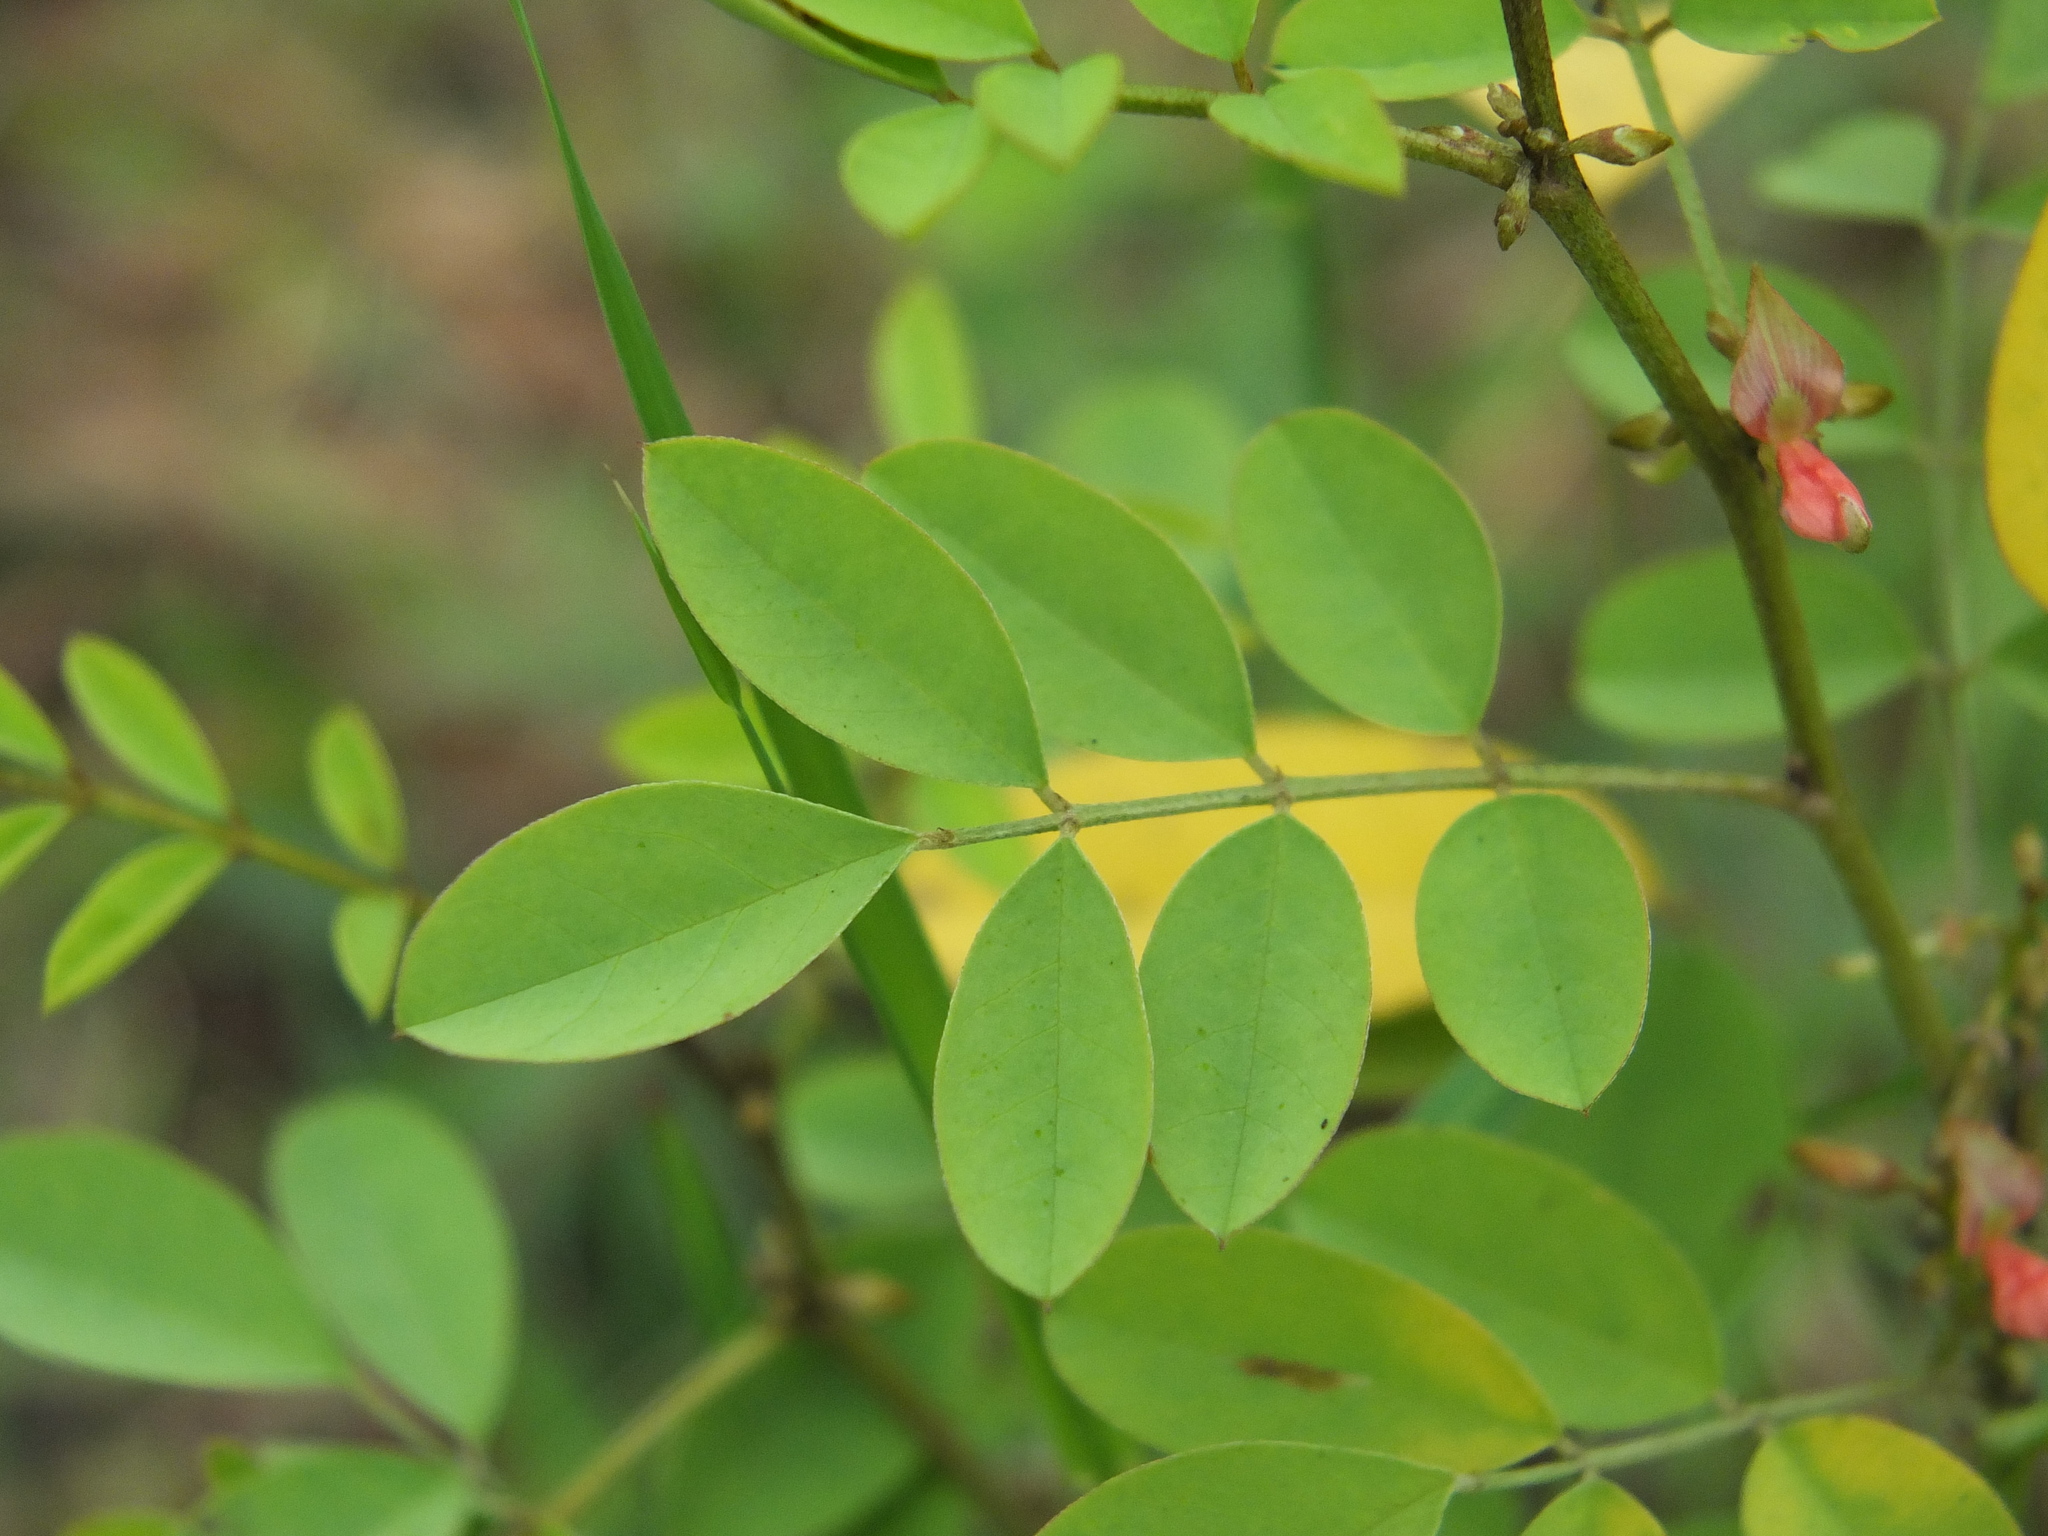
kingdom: Plantae
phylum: Tracheophyta
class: Magnoliopsida
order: Fabales
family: Fabaceae
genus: Indigofera
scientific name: Indigofera tinctoria
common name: True indigo
